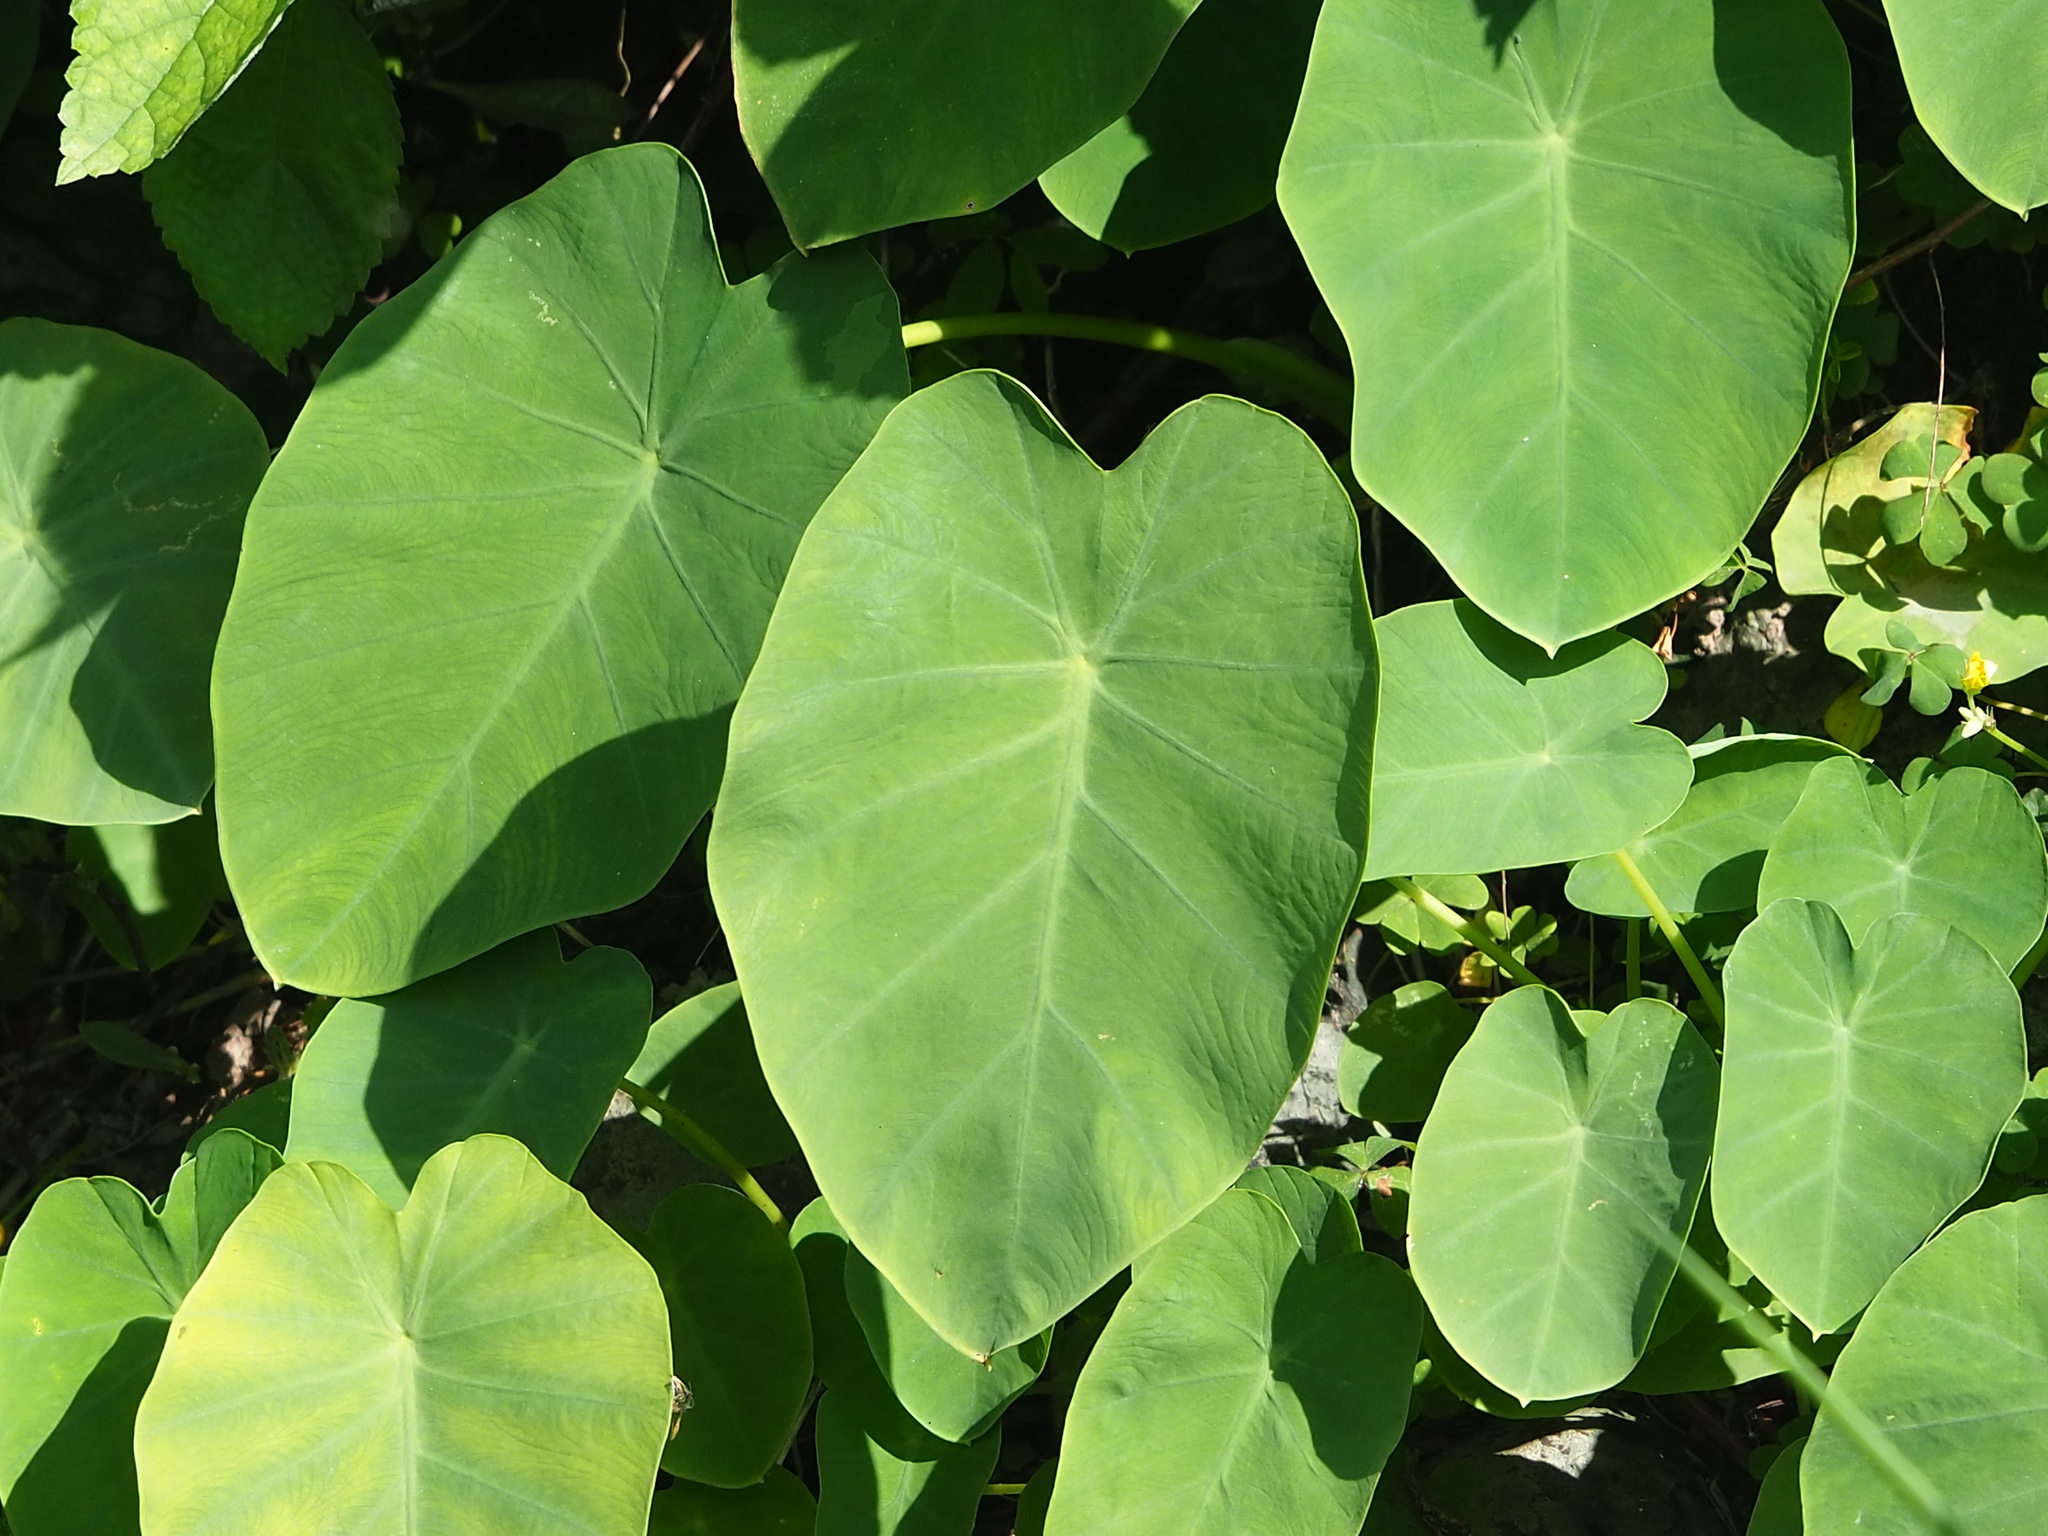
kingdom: Plantae
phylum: Tracheophyta
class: Liliopsida
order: Alismatales
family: Araceae
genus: Colocasia
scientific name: Colocasia esculenta
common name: Taro
